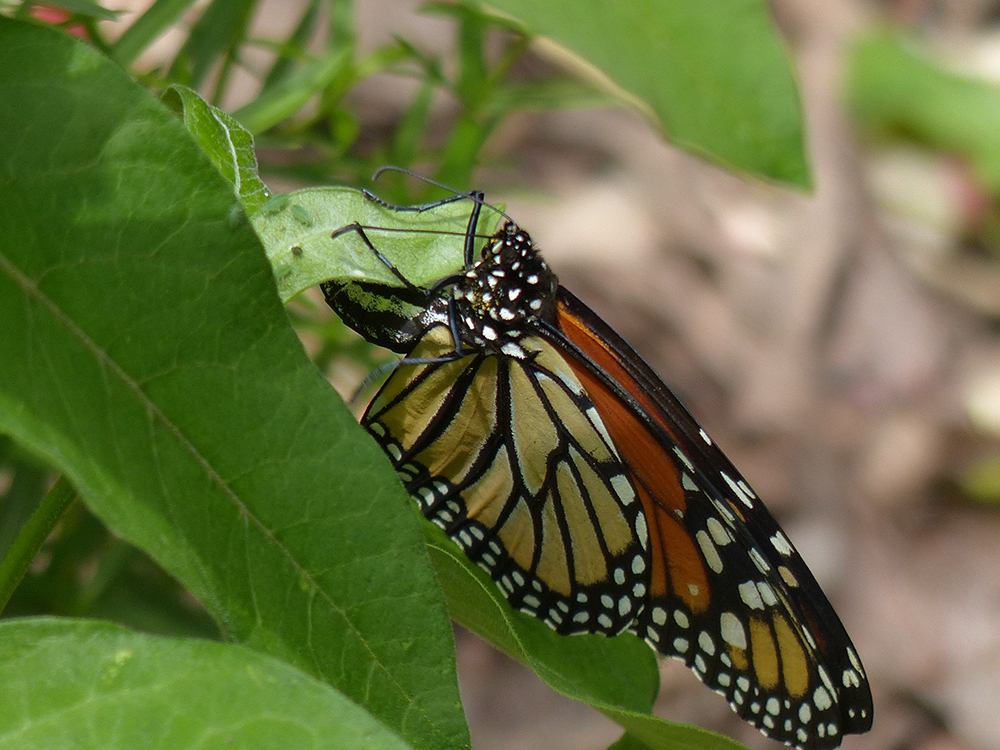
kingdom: Animalia
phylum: Arthropoda
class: Insecta
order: Lepidoptera
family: Nymphalidae
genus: Danaus
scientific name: Danaus plexippus
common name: Monarch
